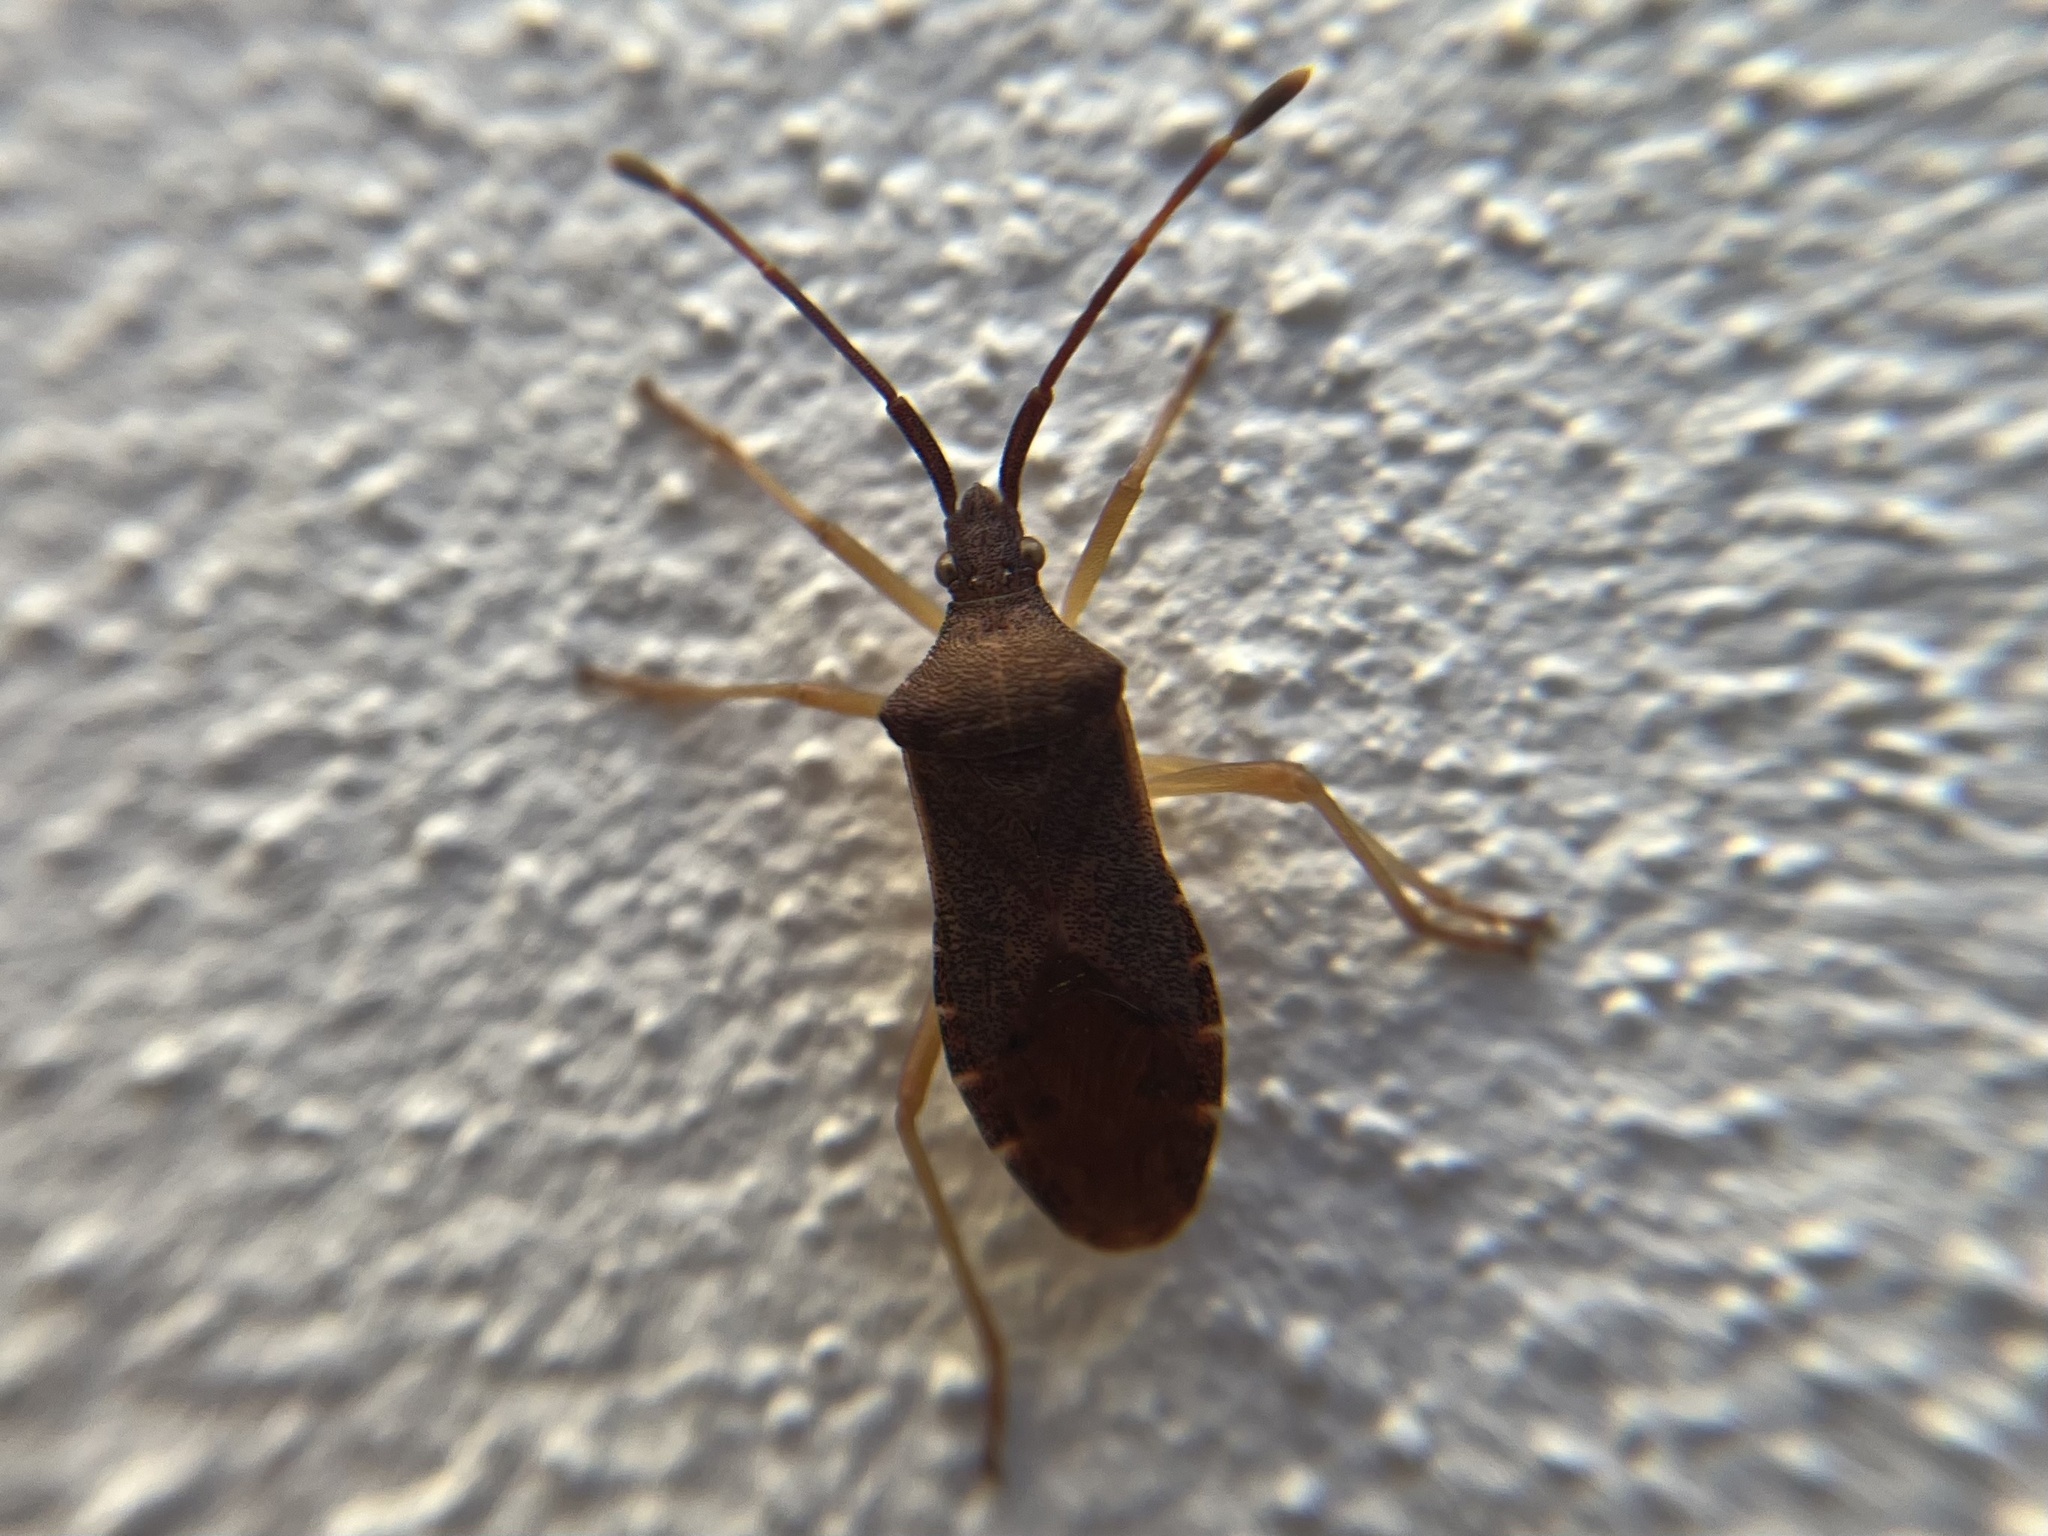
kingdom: Animalia
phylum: Arthropoda
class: Insecta
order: Hemiptera
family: Coreidae
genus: Gonocerus
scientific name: Gonocerus acuteangulatus
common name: Box bug
